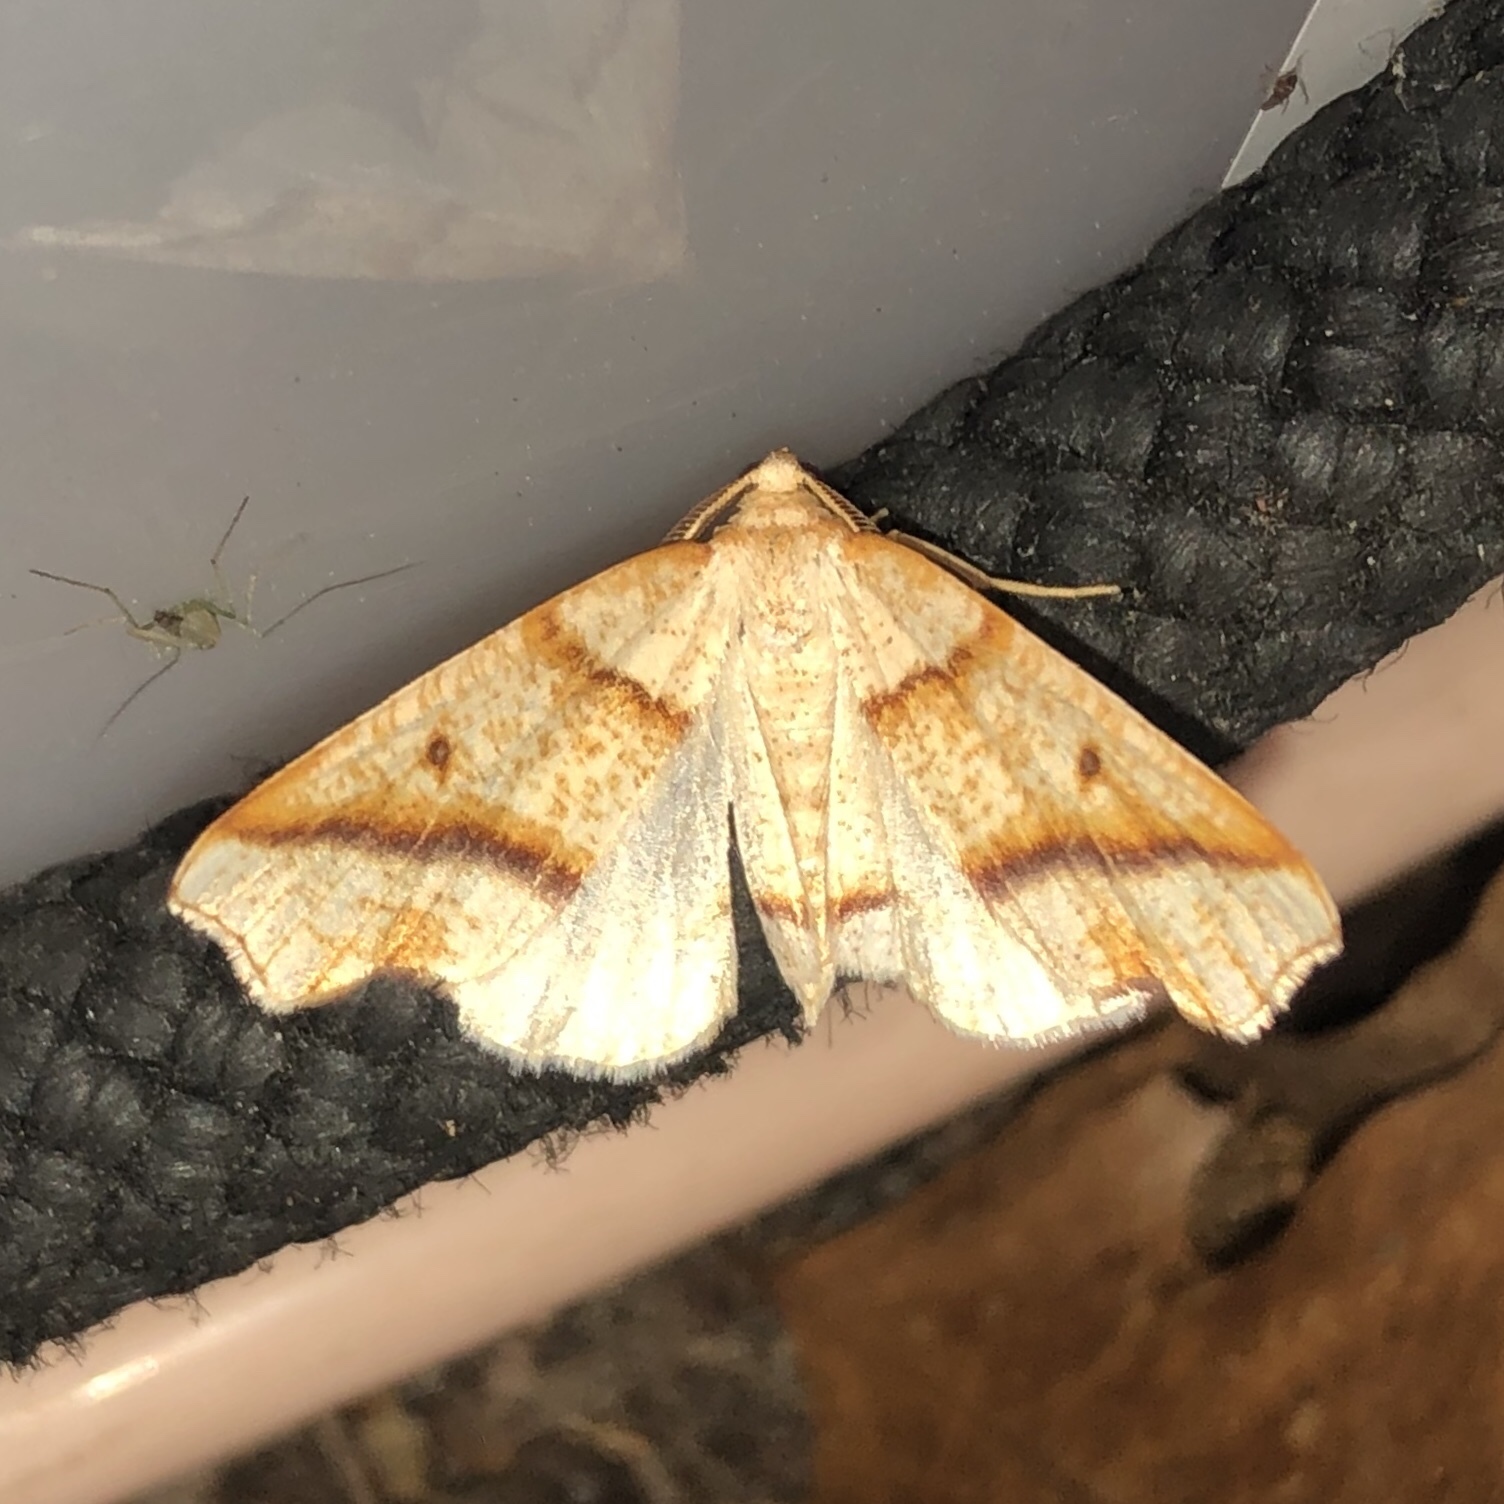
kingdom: Animalia
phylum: Arthropoda
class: Insecta
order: Lepidoptera
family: Geometridae
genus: Plagodis
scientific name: Plagodis alcoolaria
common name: Hollow-spotted plagodis
